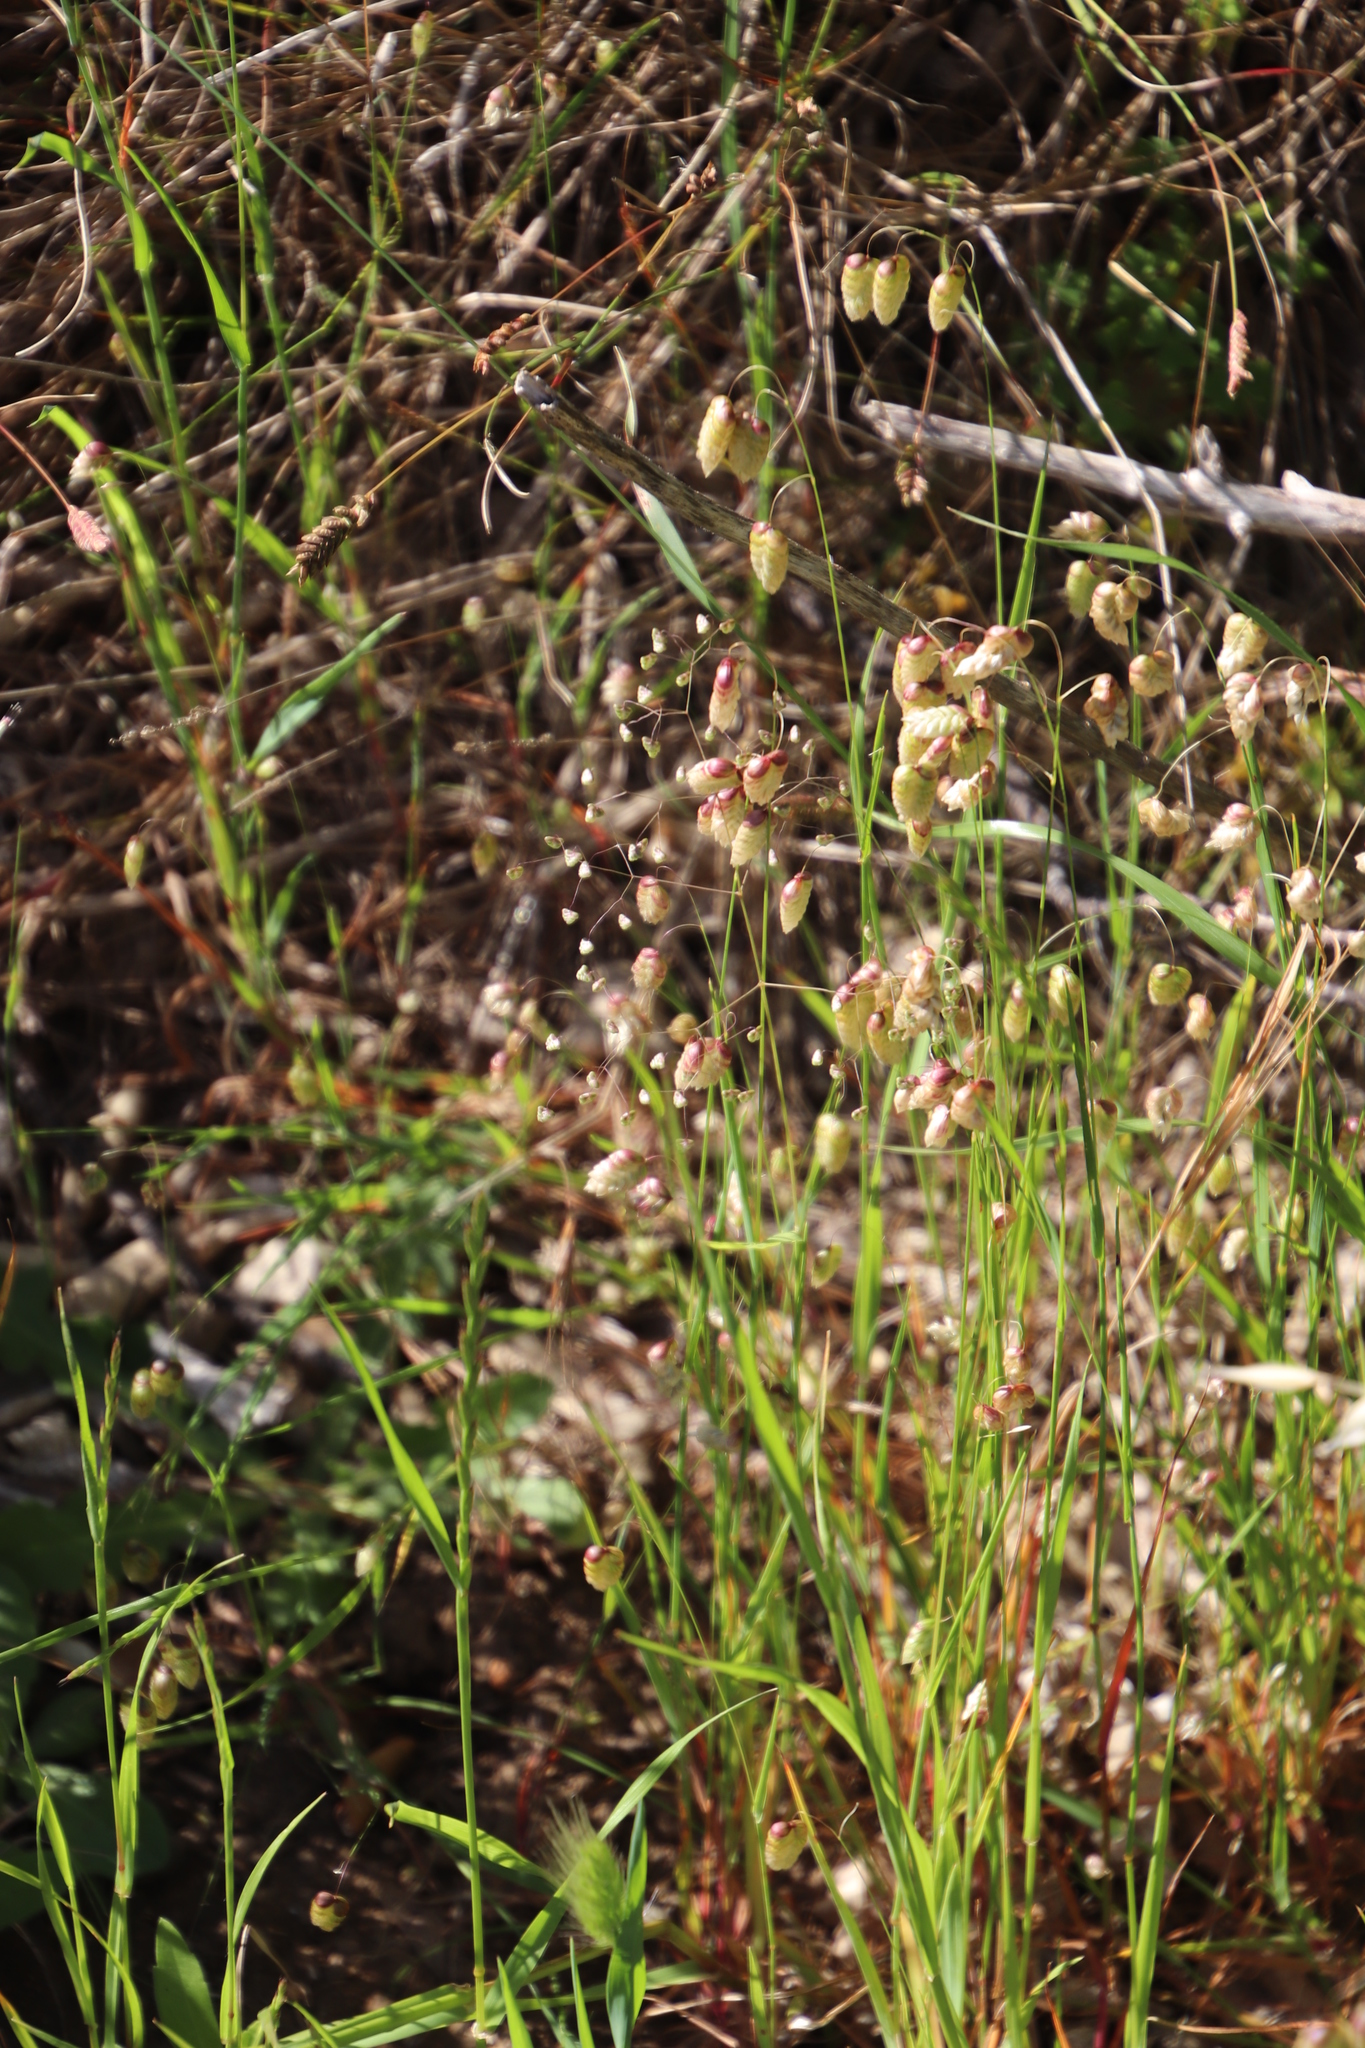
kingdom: Plantae
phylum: Tracheophyta
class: Liliopsida
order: Poales
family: Poaceae
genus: Briza
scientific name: Briza maxima
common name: Big quakinggrass
